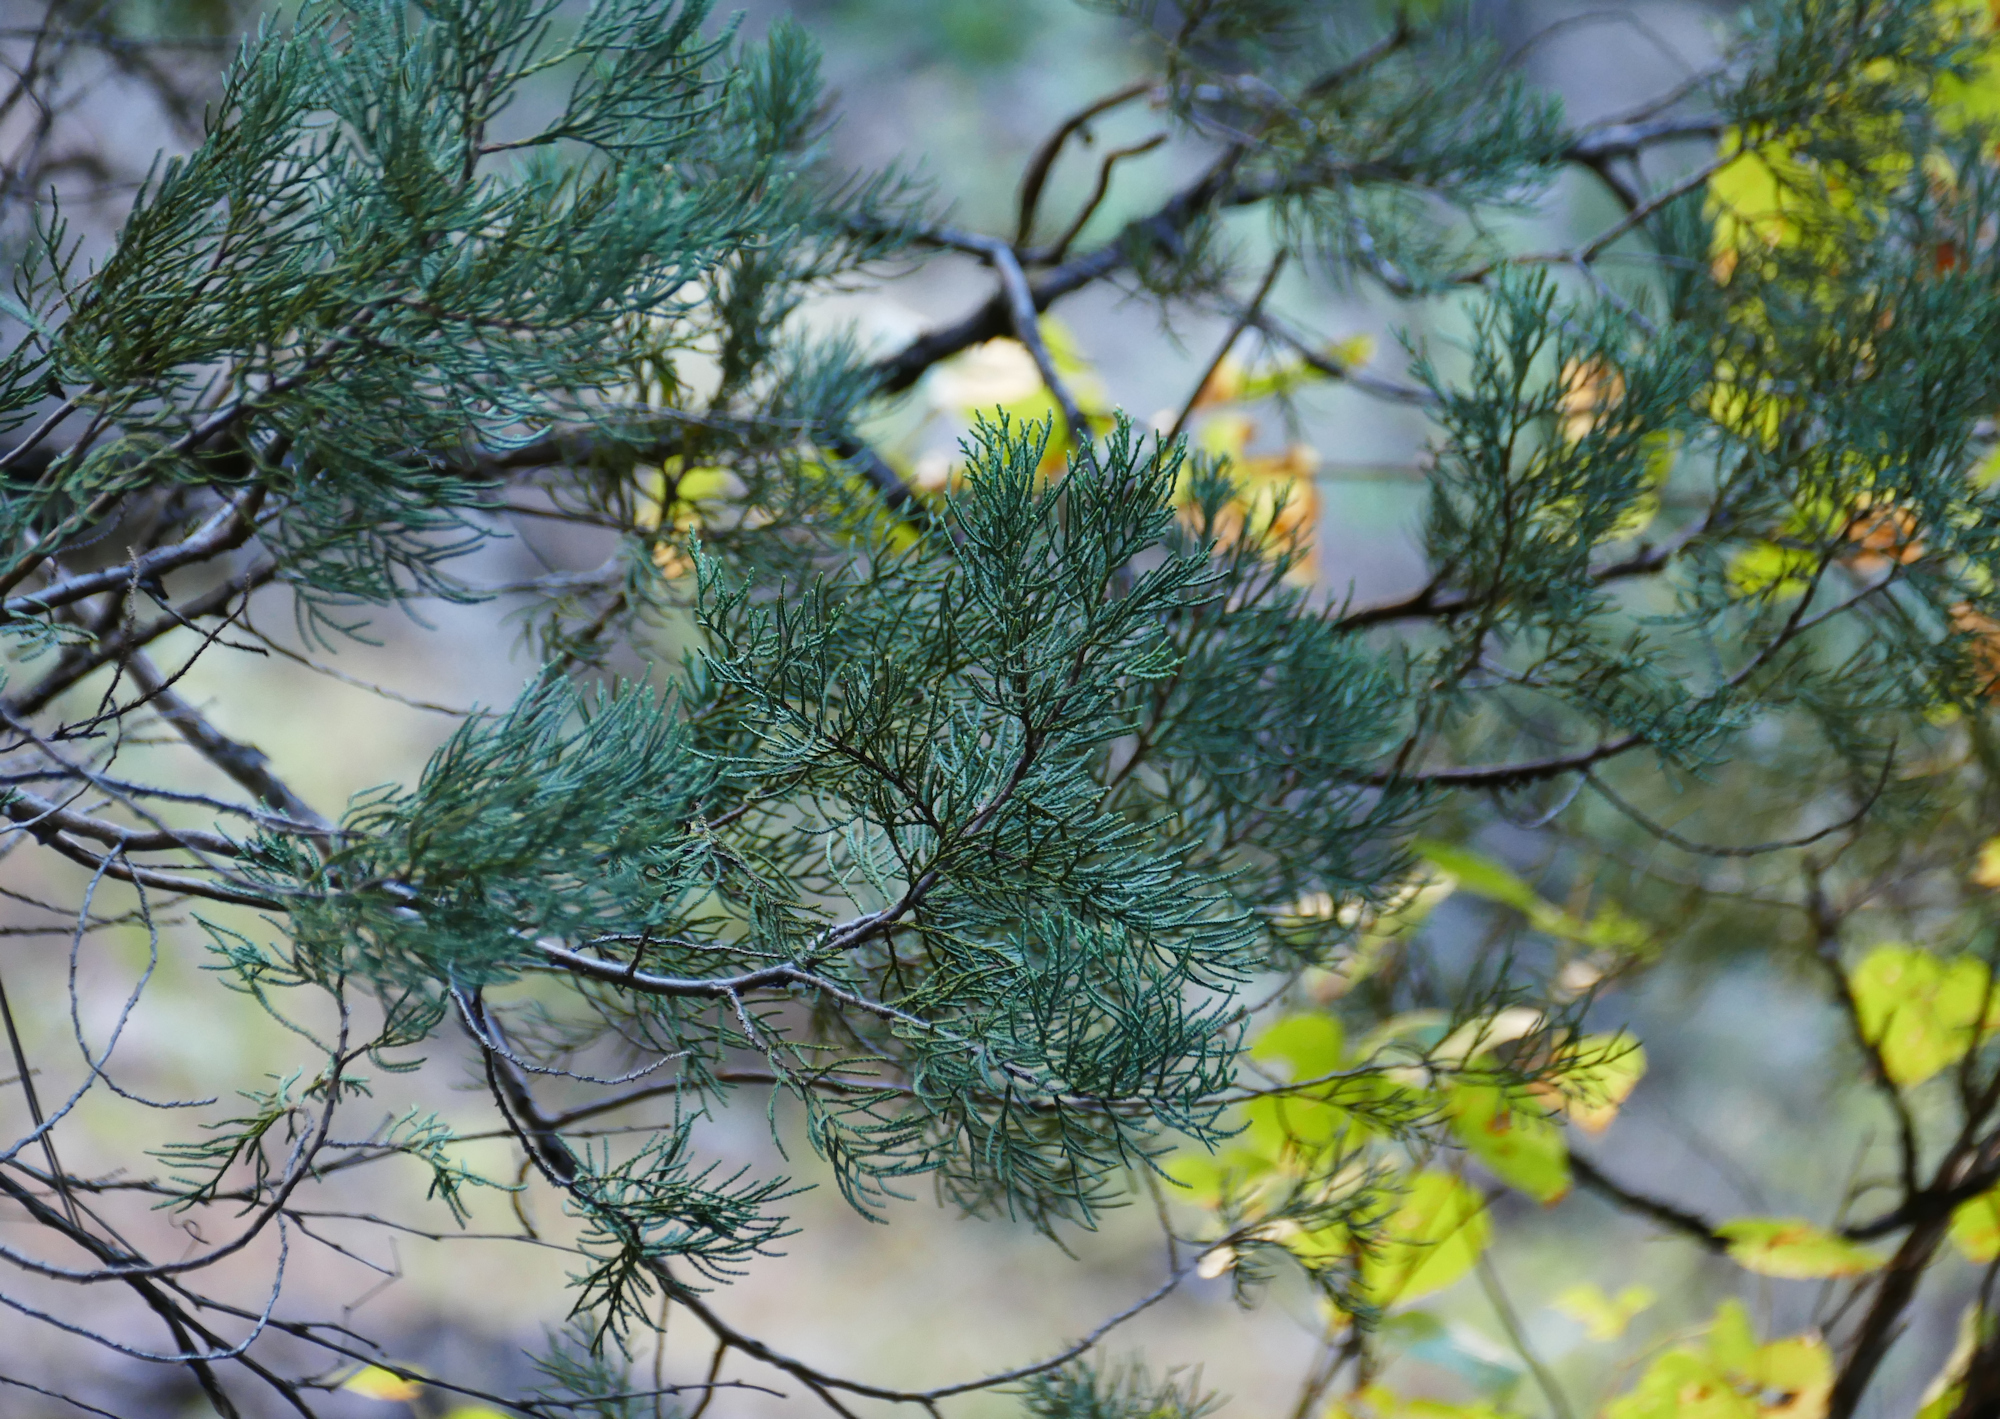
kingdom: Plantae
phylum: Tracheophyta
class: Pinopsida
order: Pinales
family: Cupressaceae
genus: Juniperus
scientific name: Juniperus deppeana
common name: Alligator juniper
